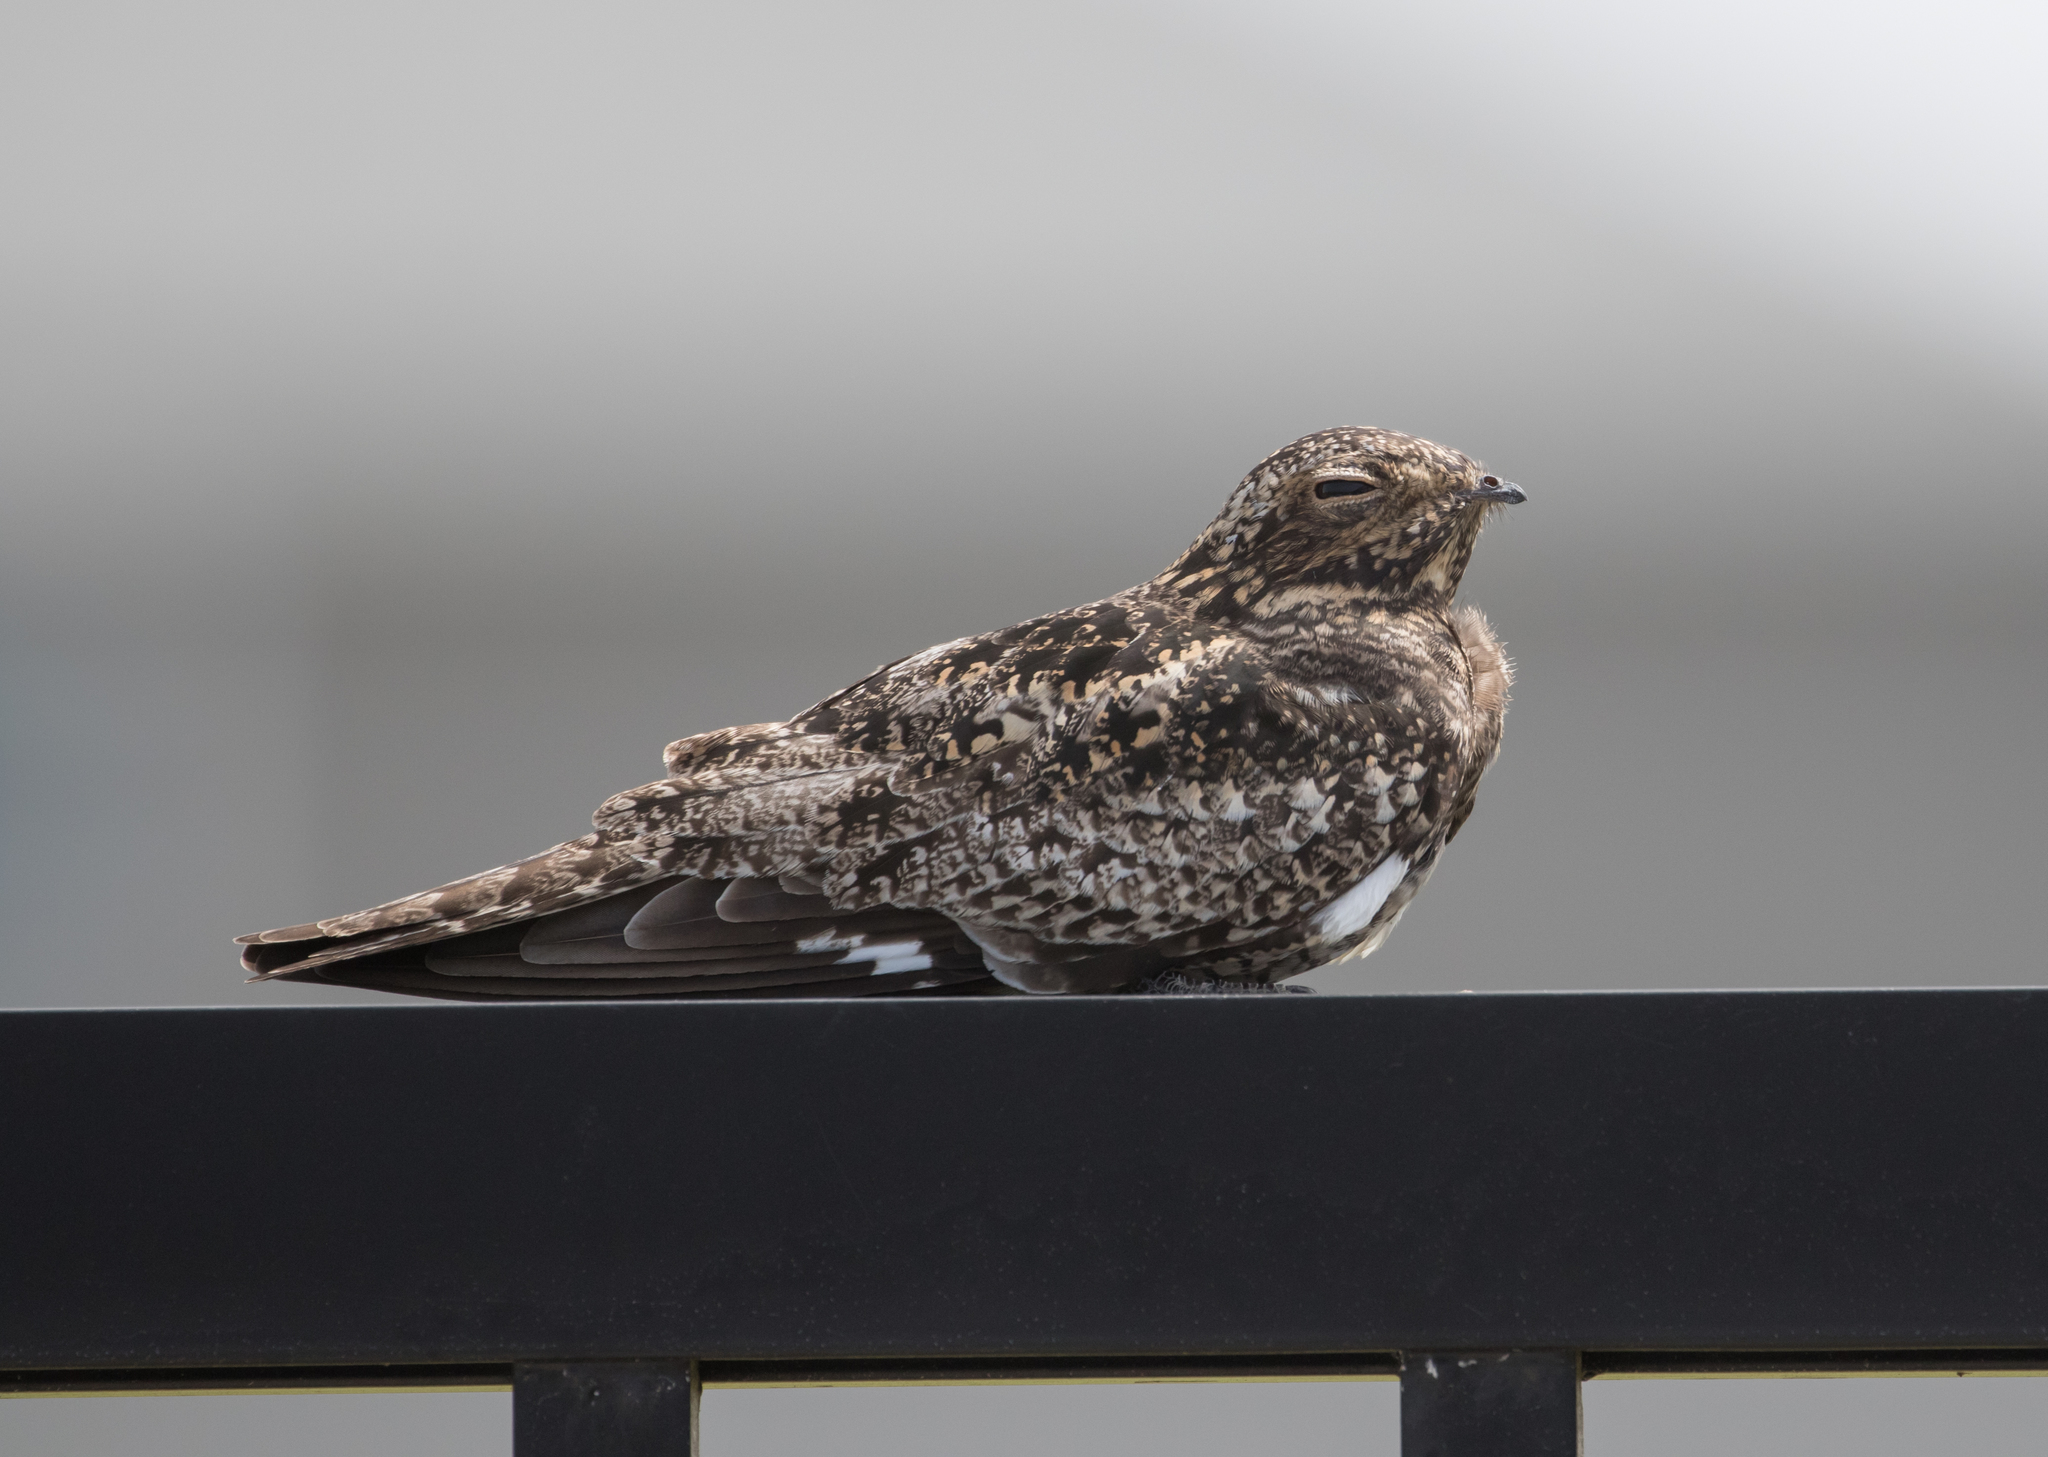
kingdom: Animalia
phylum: Chordata
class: Aves
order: Caprimulgiformes
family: Caprimulgidae
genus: Chordeiles
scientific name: Chordeiles minor
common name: Common nighthawk
